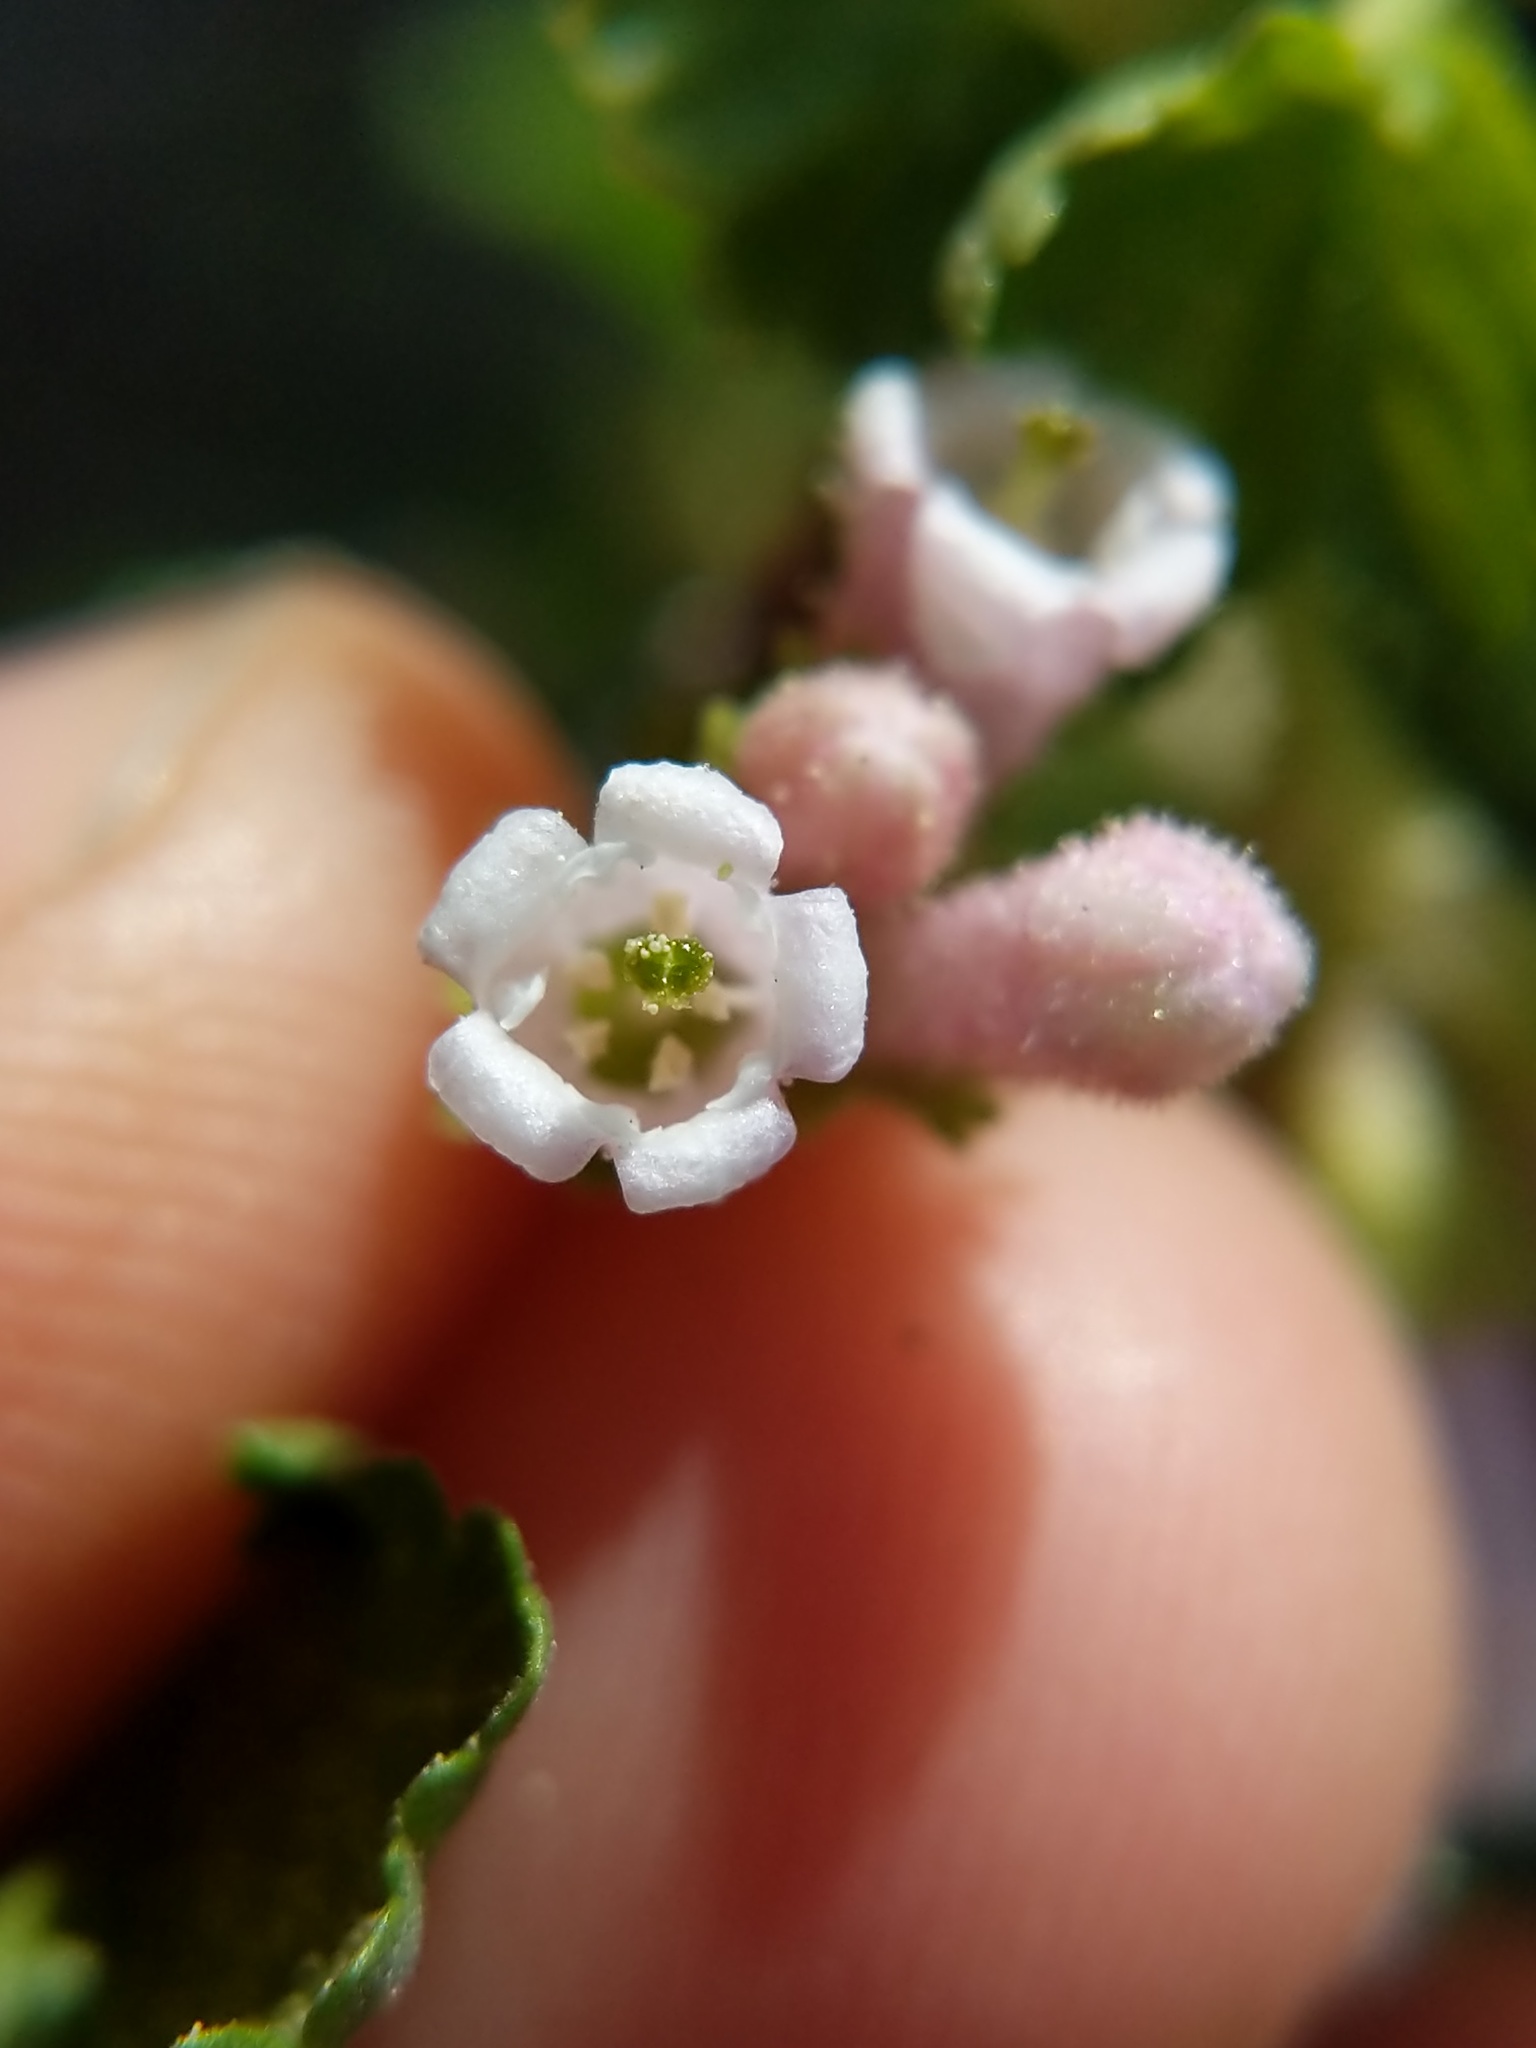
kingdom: Plantae
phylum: Tracheophyta
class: Magnoliopsida
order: Saxifragales
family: Grossulariaceae
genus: Ribes
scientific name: Ribes cereum
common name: Wax currant
